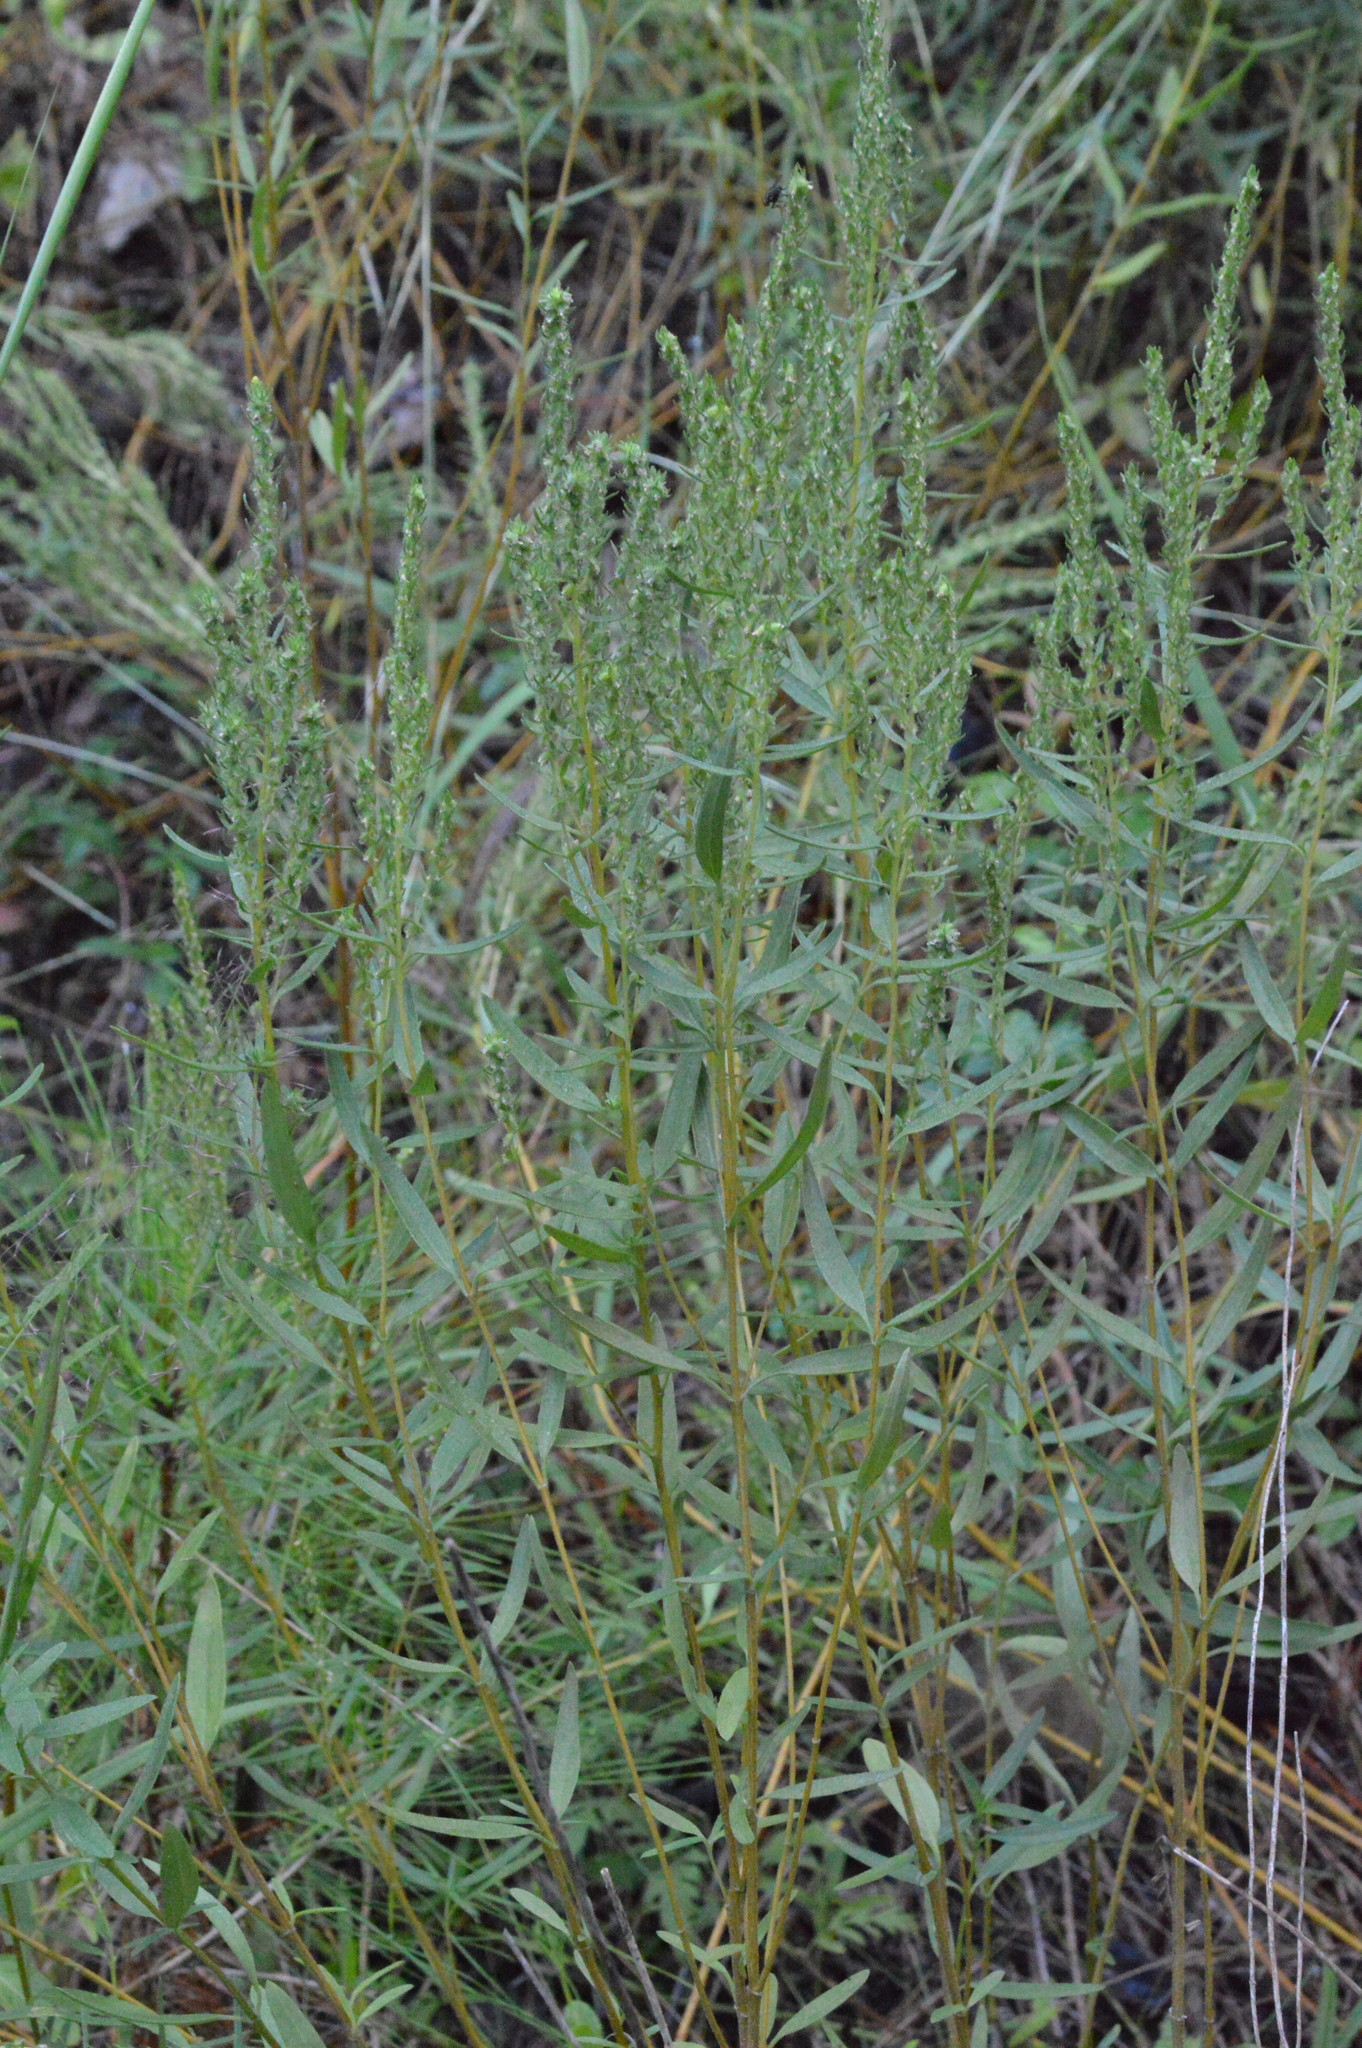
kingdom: Plantae
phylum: Tracheophyta
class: Magnoliopsida
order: Asterales
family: Asteraceae
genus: Iva
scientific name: Iva asperifolia
